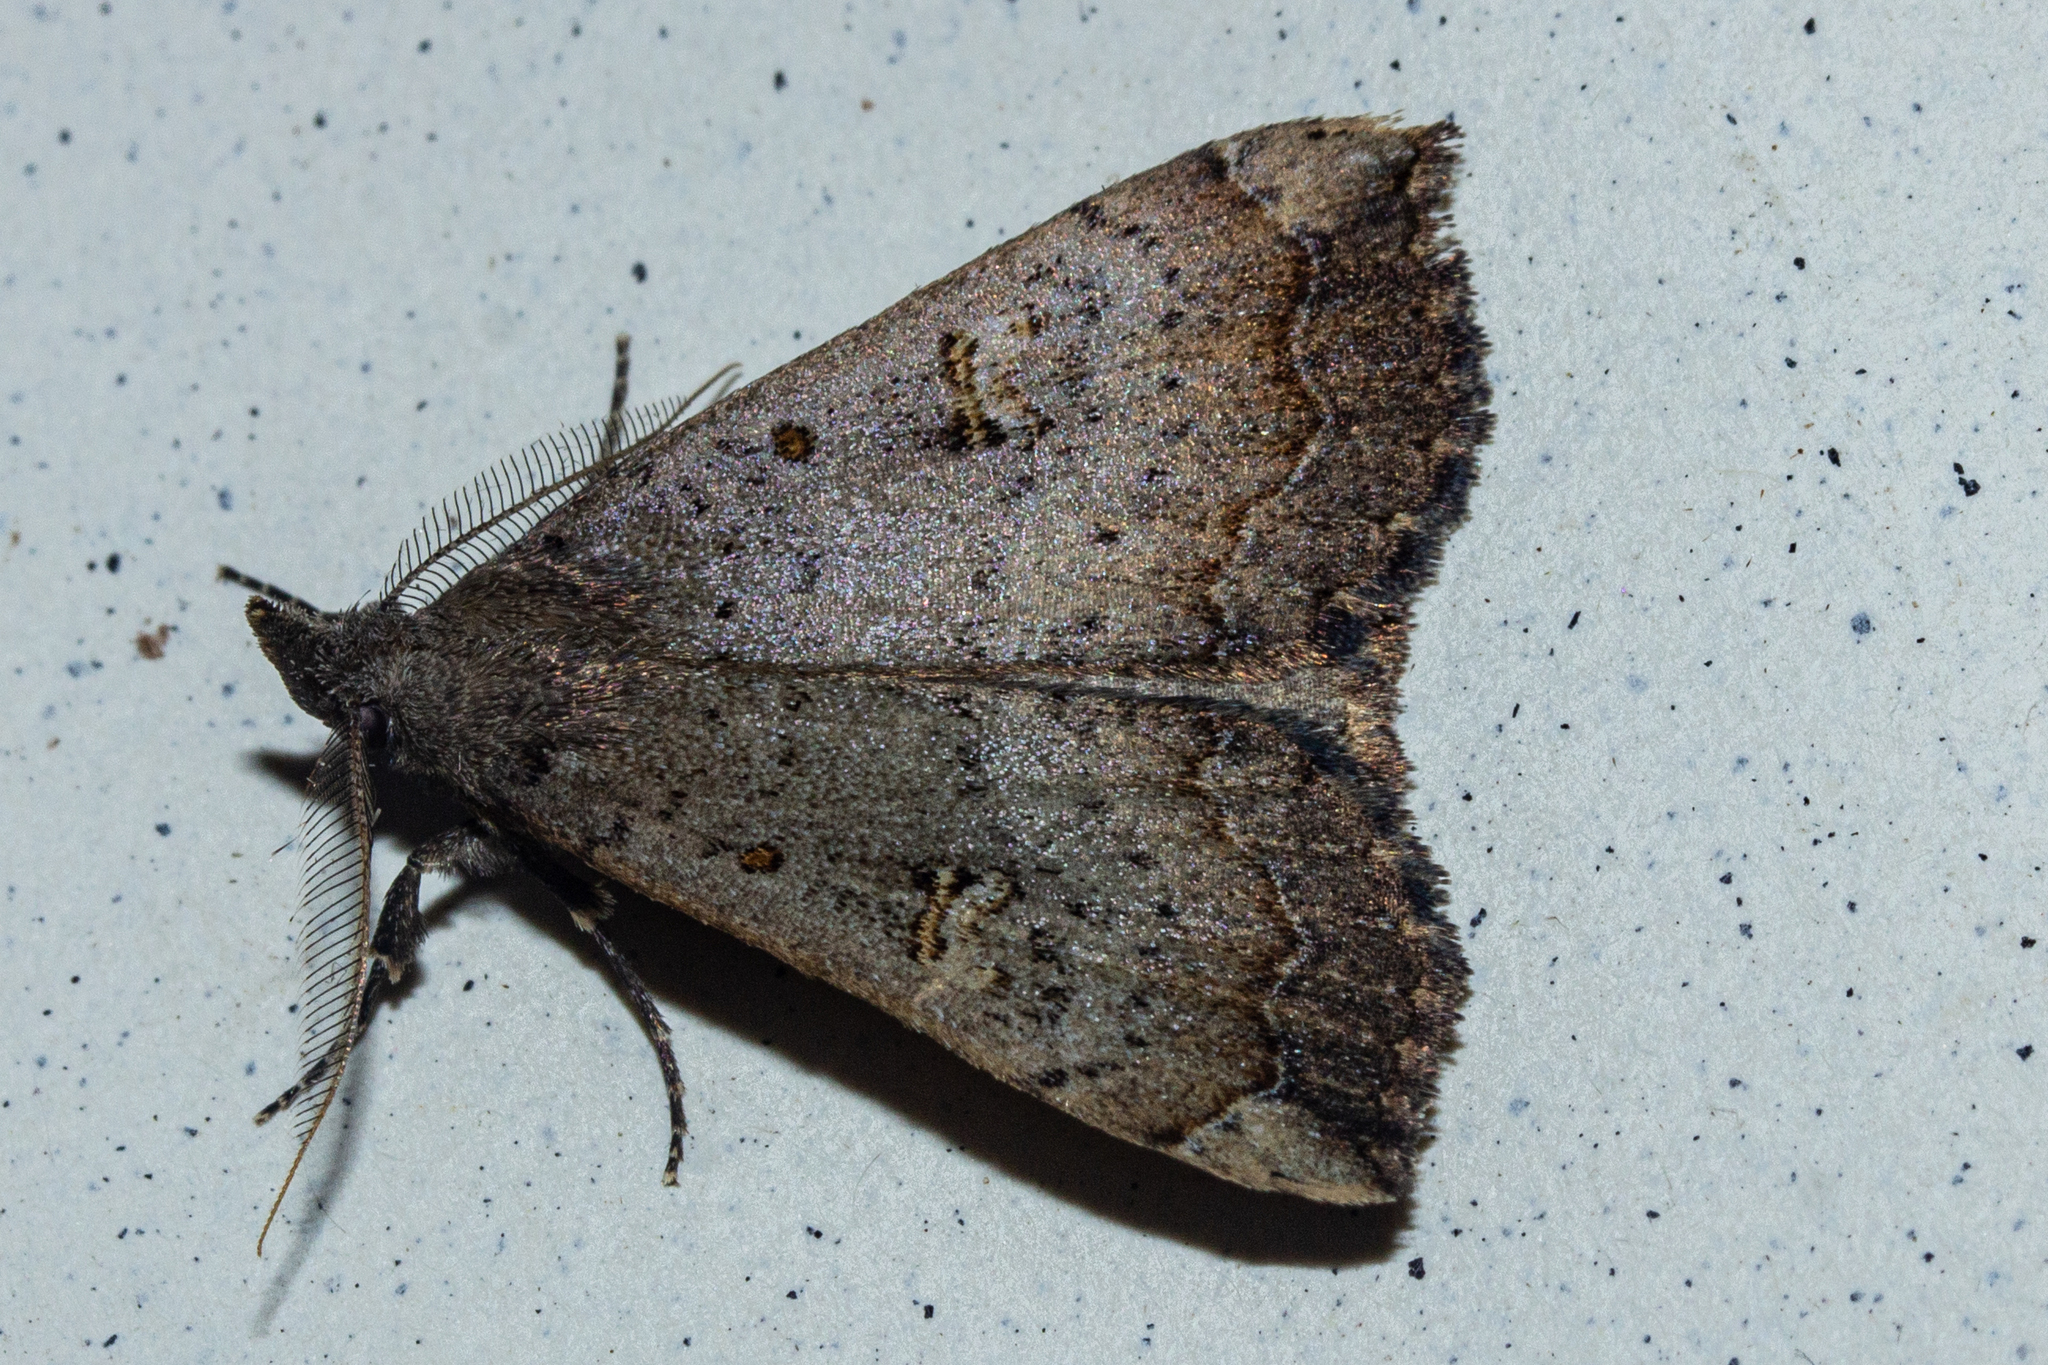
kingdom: Animalia
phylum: Arthropoda
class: Insecta
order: Lepidoptera
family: Erebidae
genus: Rhapsa
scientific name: Rhapsa scotosialis
